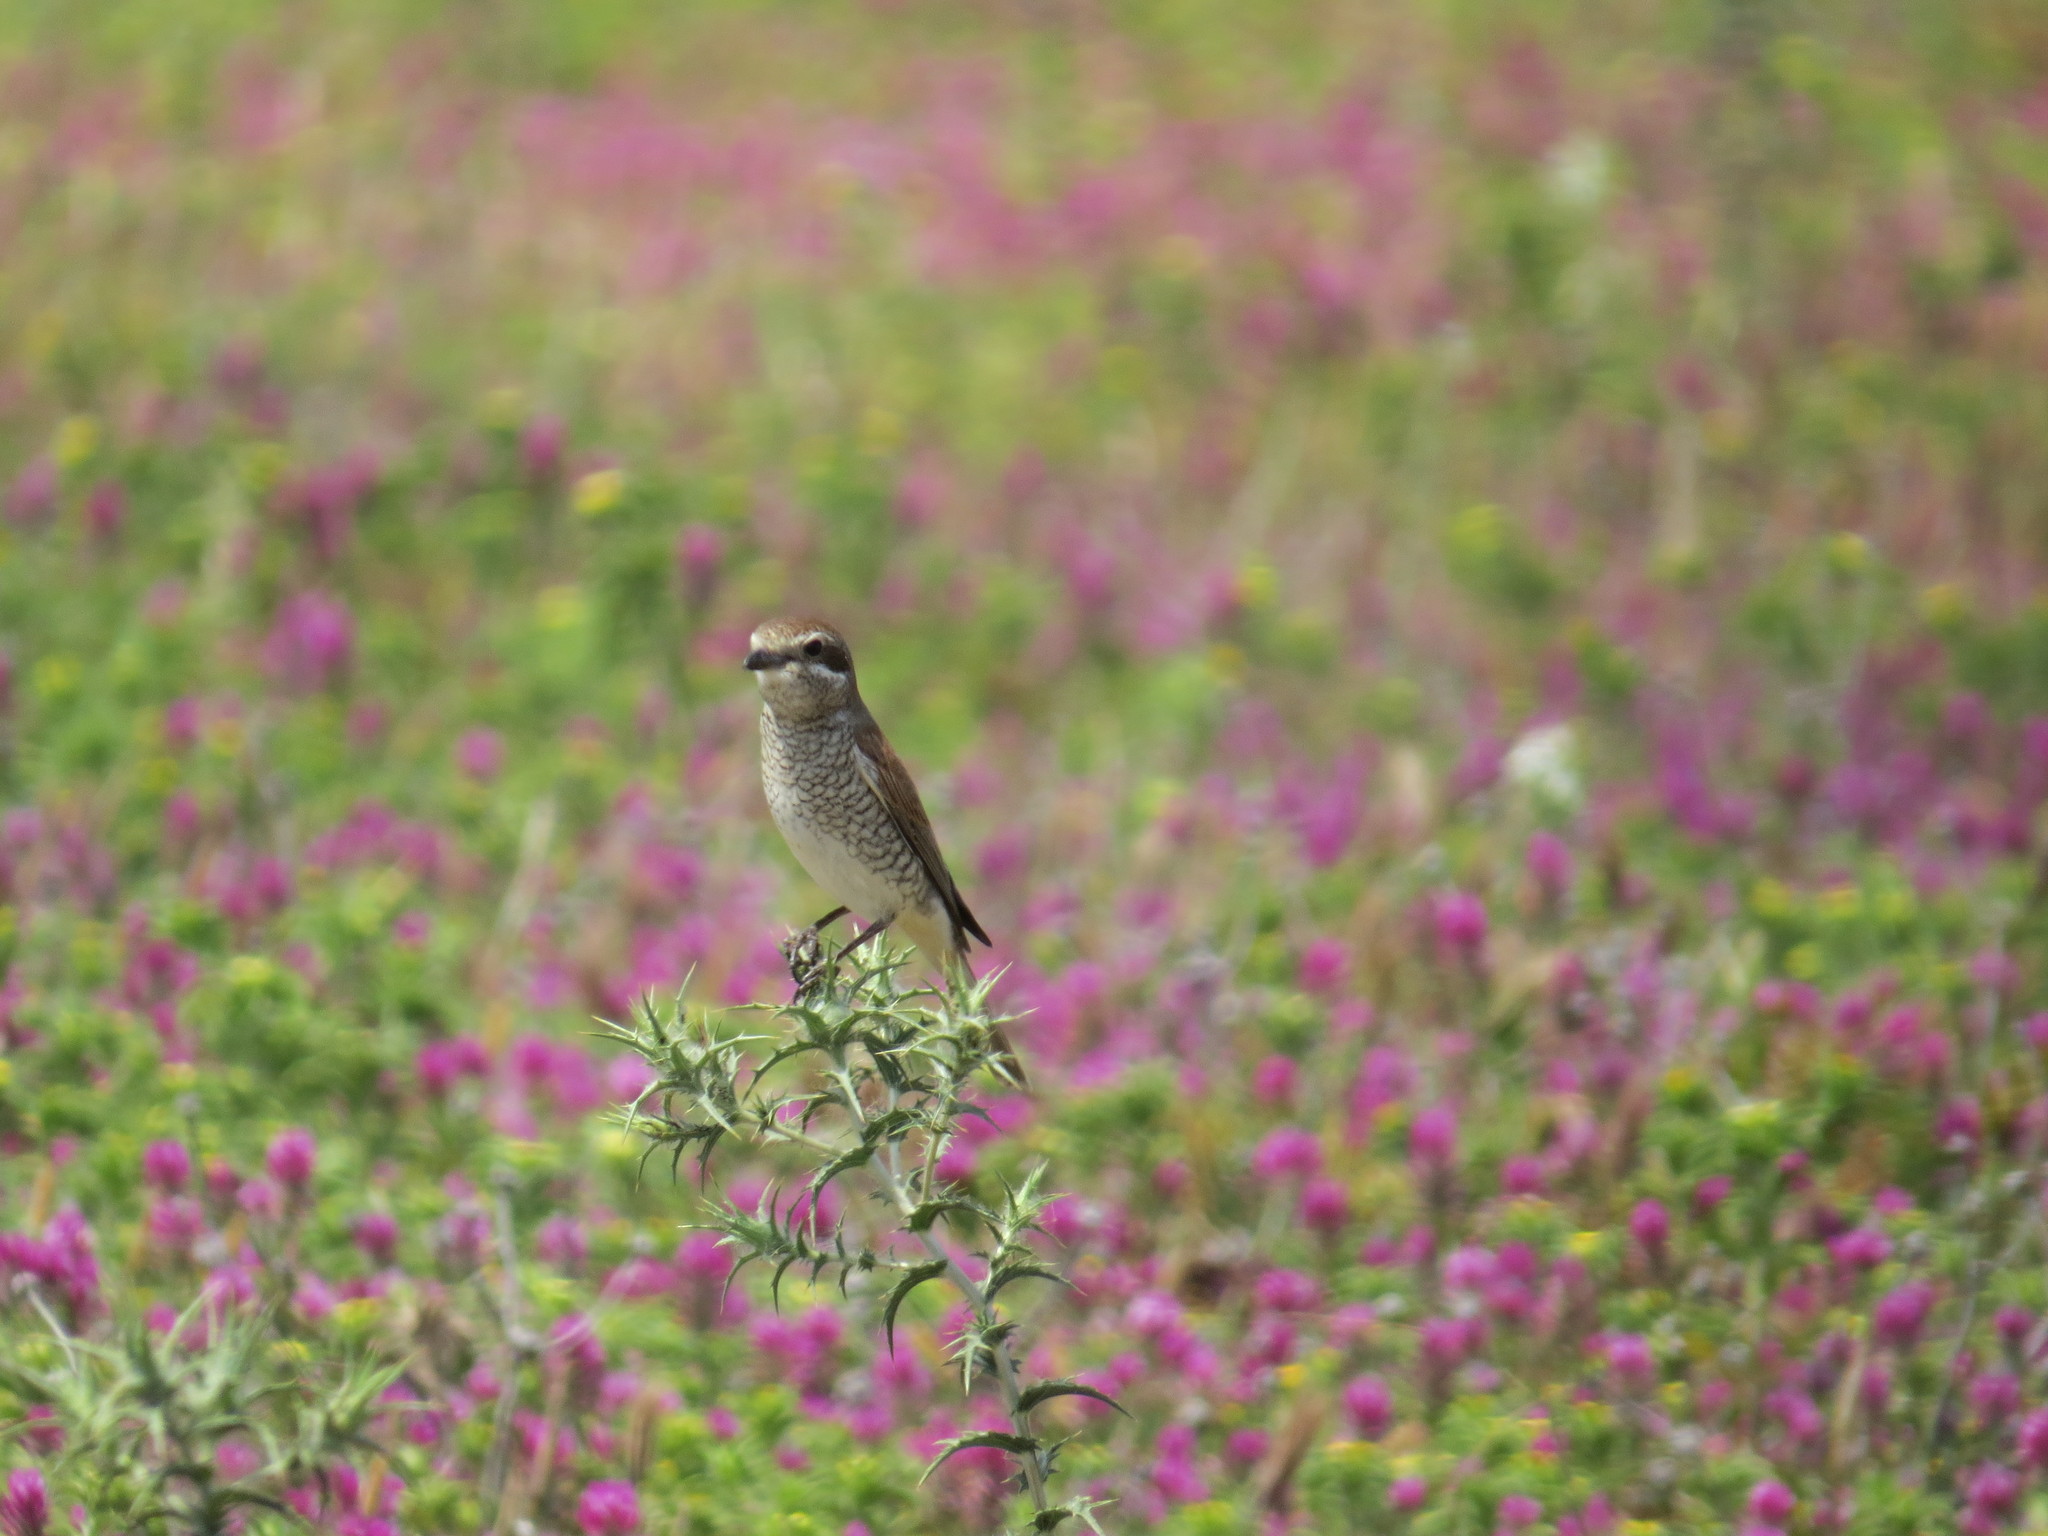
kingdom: Animalia
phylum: Chordata
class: Aves
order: Passeriformes
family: Laniidae
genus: Lanius
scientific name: Lanius collurio
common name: Red-backed shrike
